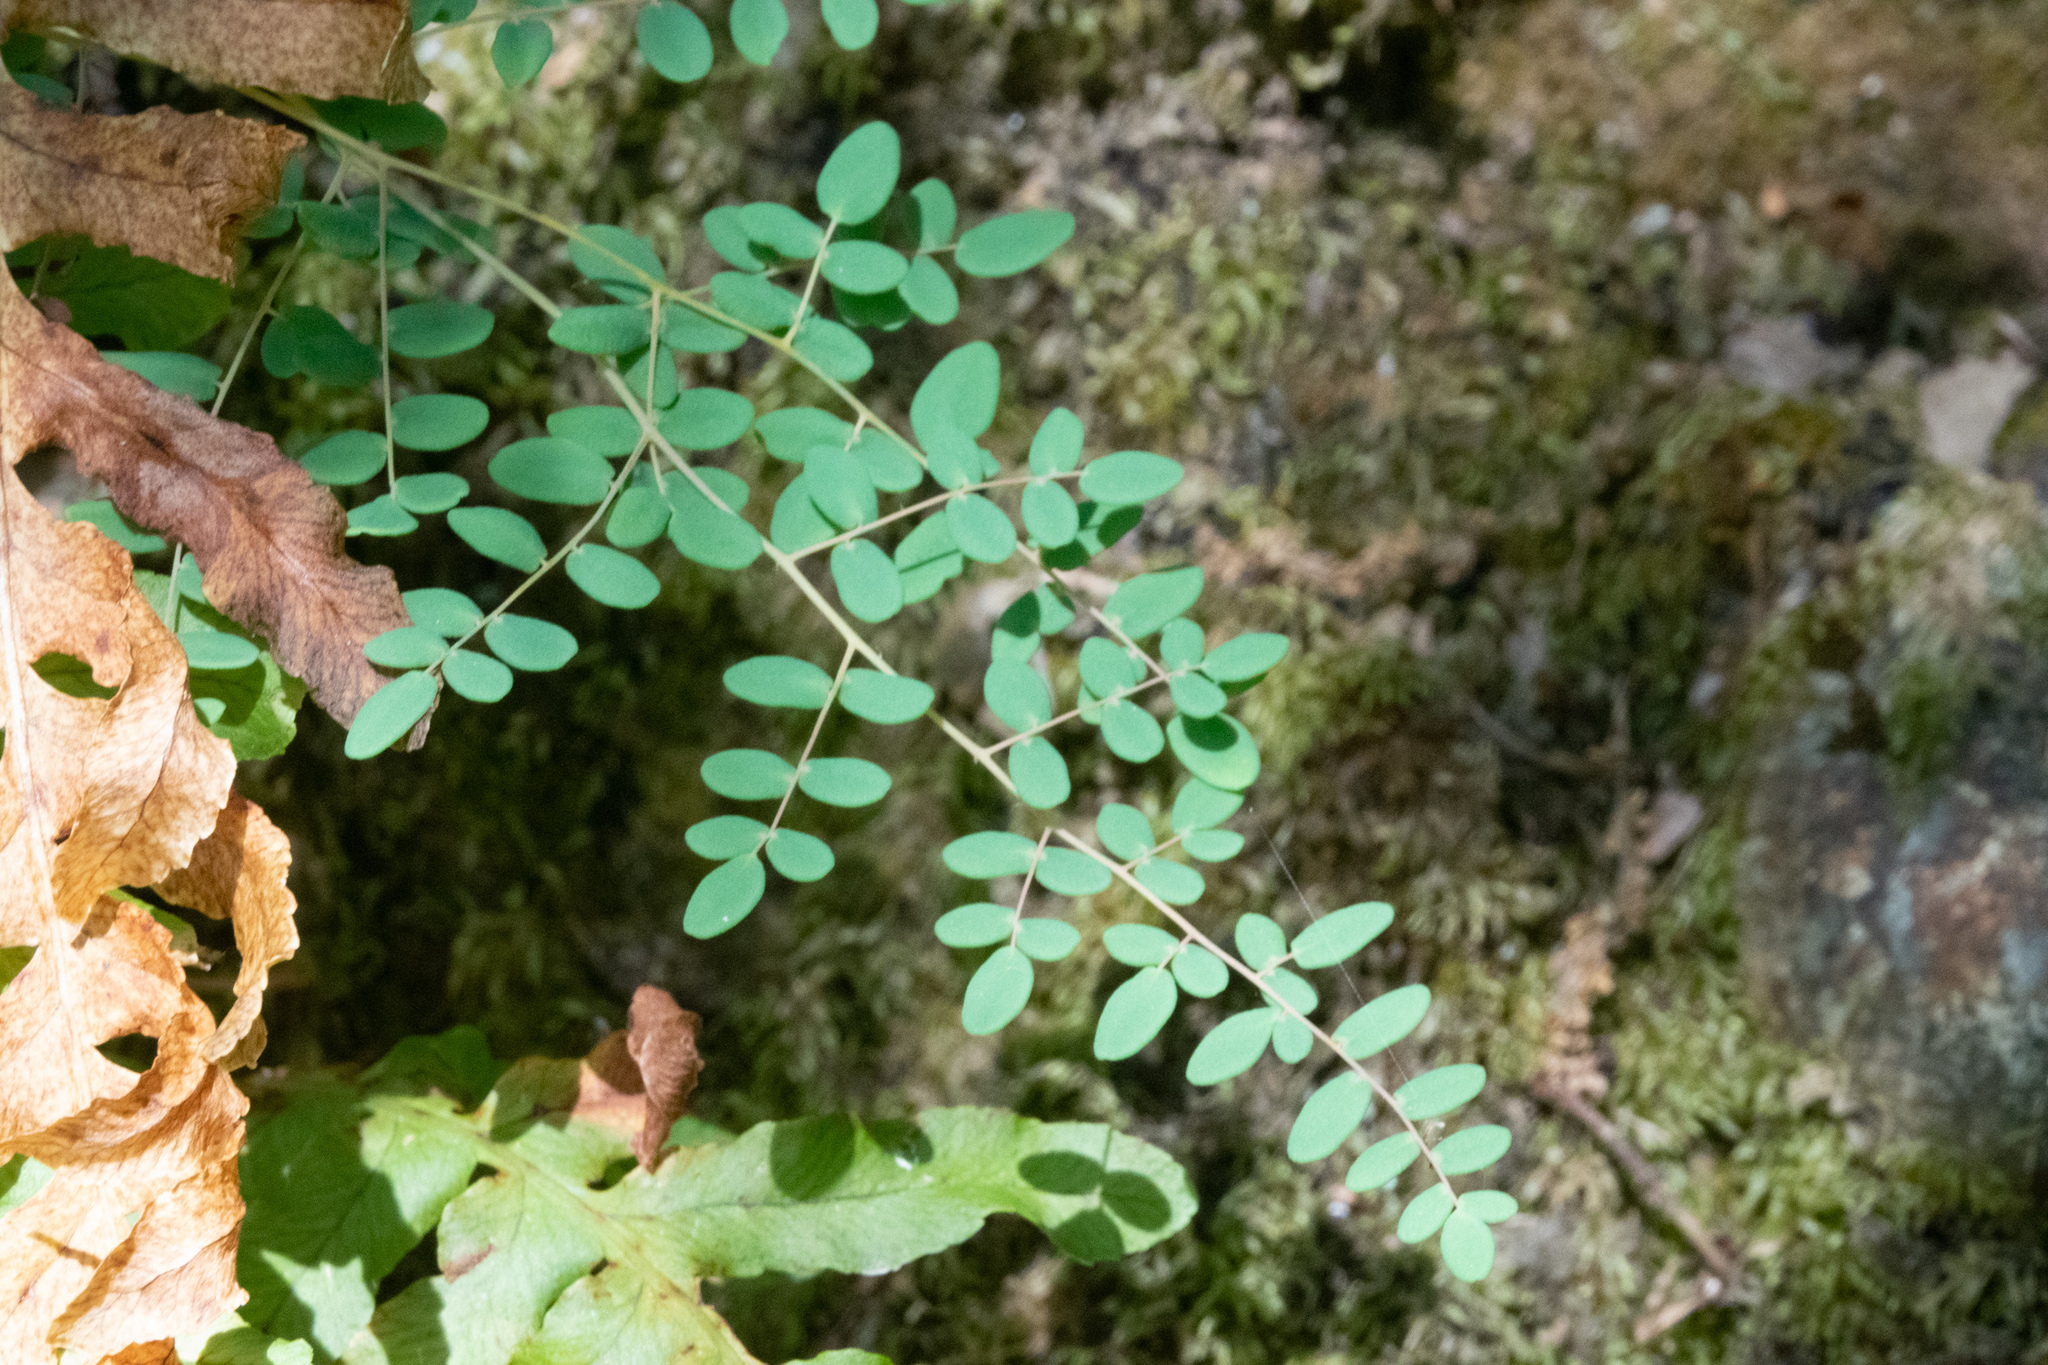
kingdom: Plantae
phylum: Tracheophyta
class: Polypodiopsida
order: Polypodiales
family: Pteridaceae
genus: Pellaea
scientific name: Pellaea andromedifolia
